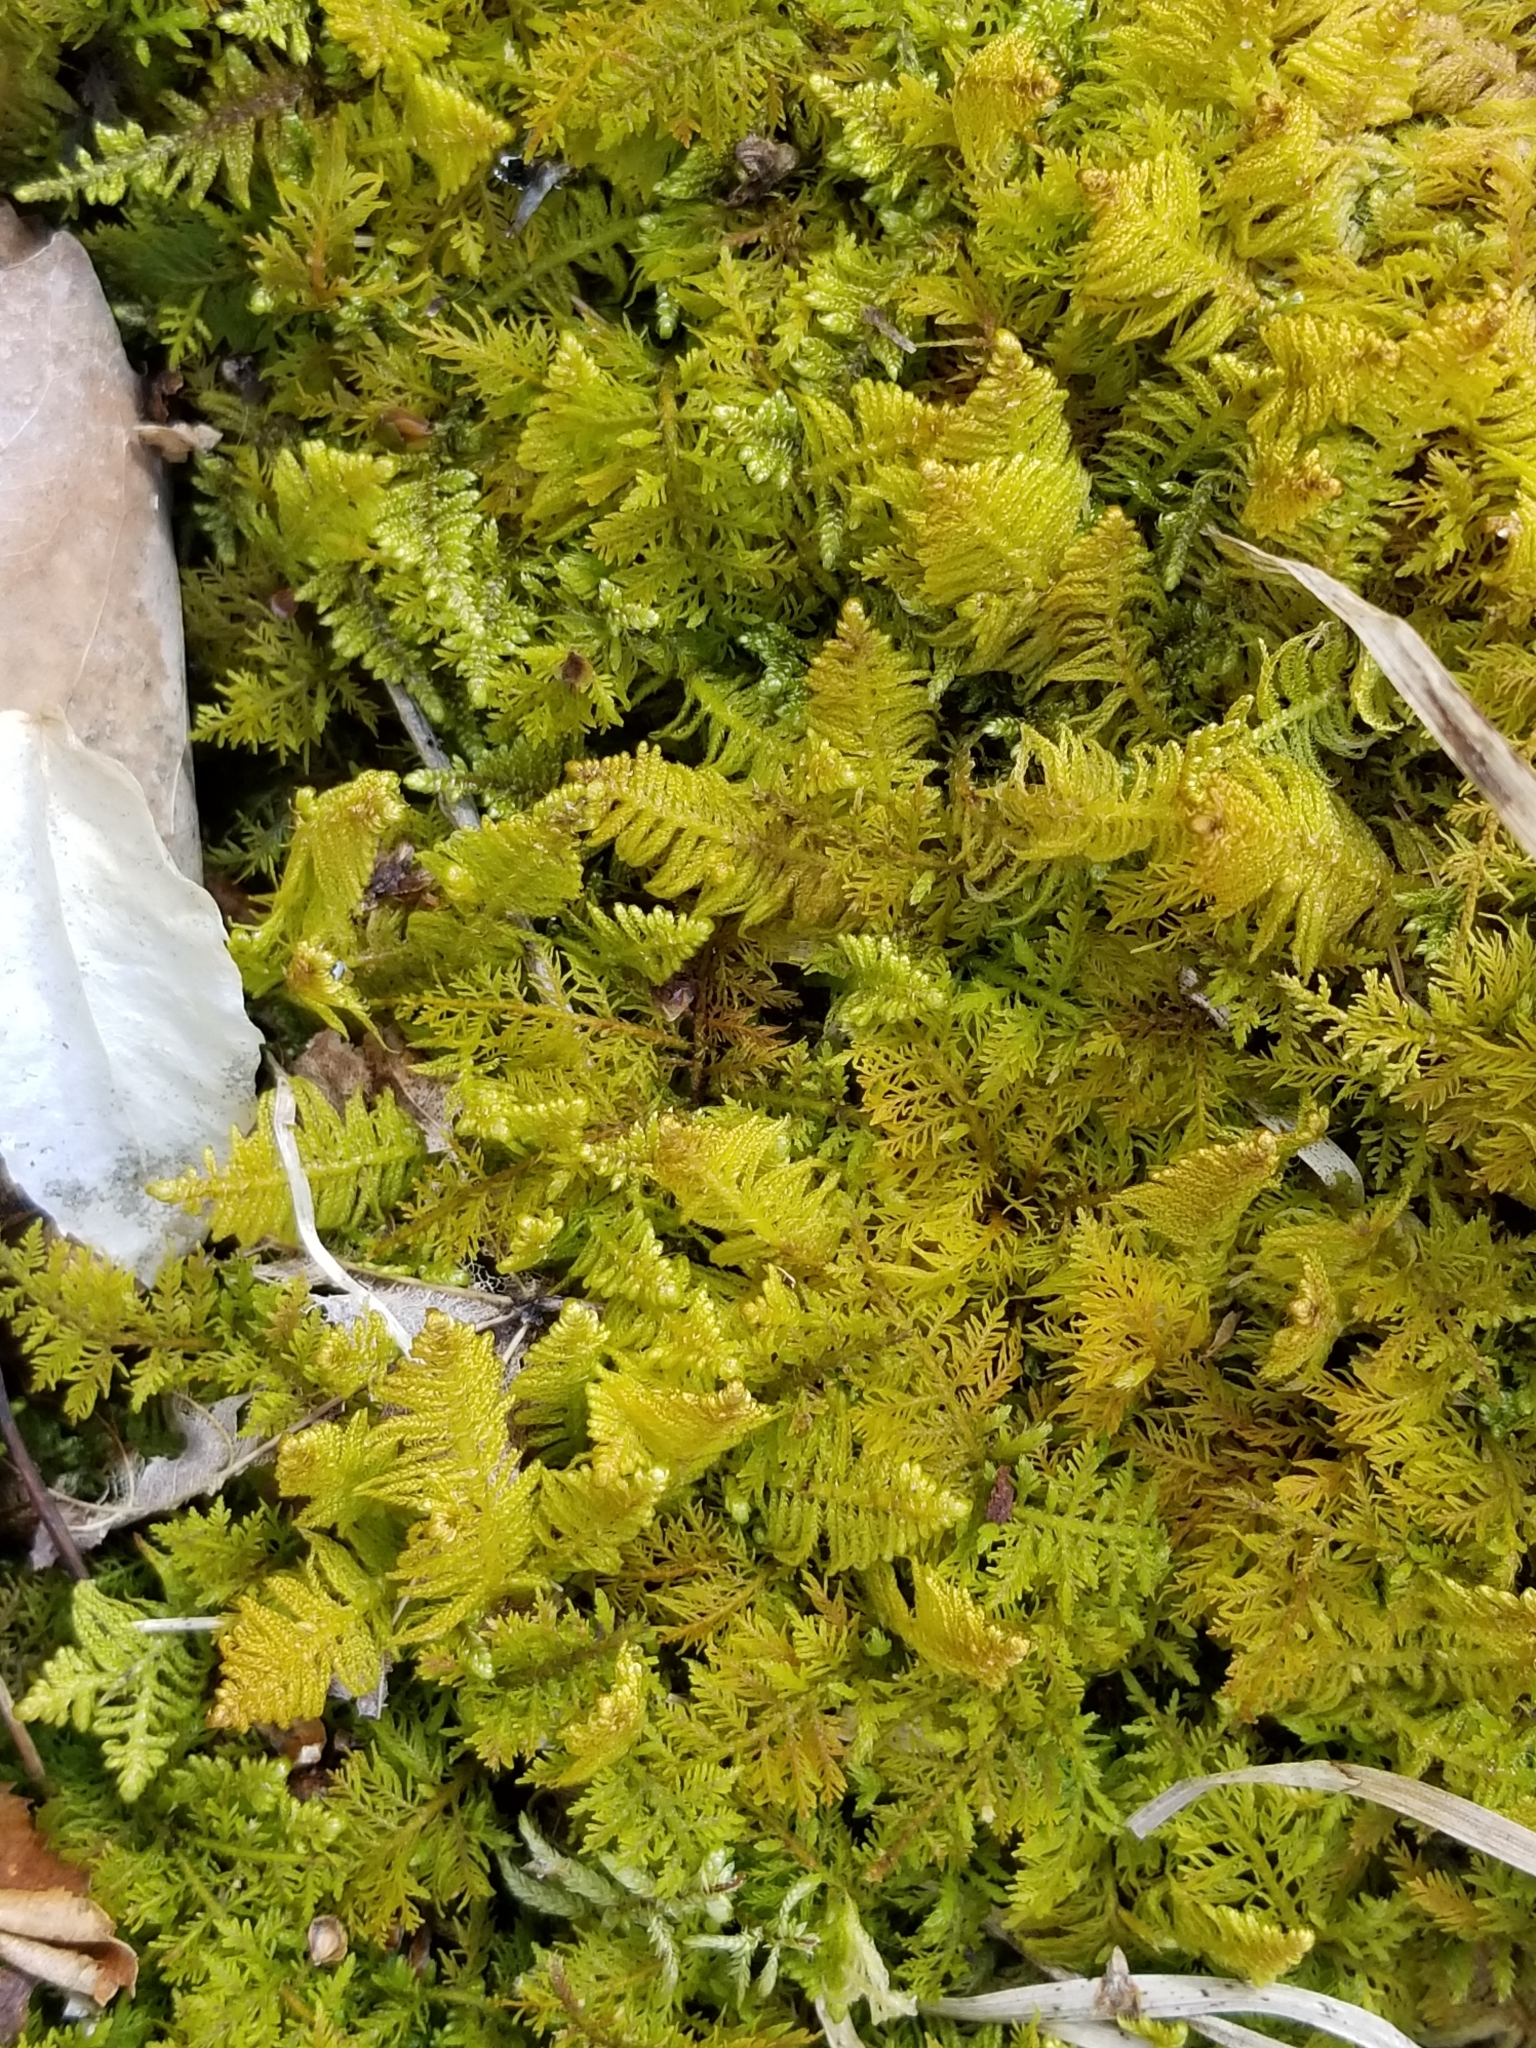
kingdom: Plantae
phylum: Bryophyta
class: Bryopsida
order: Hypnales
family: Pylaisiaceae
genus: Ptilium
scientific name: Ptilium crista-castrensis
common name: Knight's plume moss
